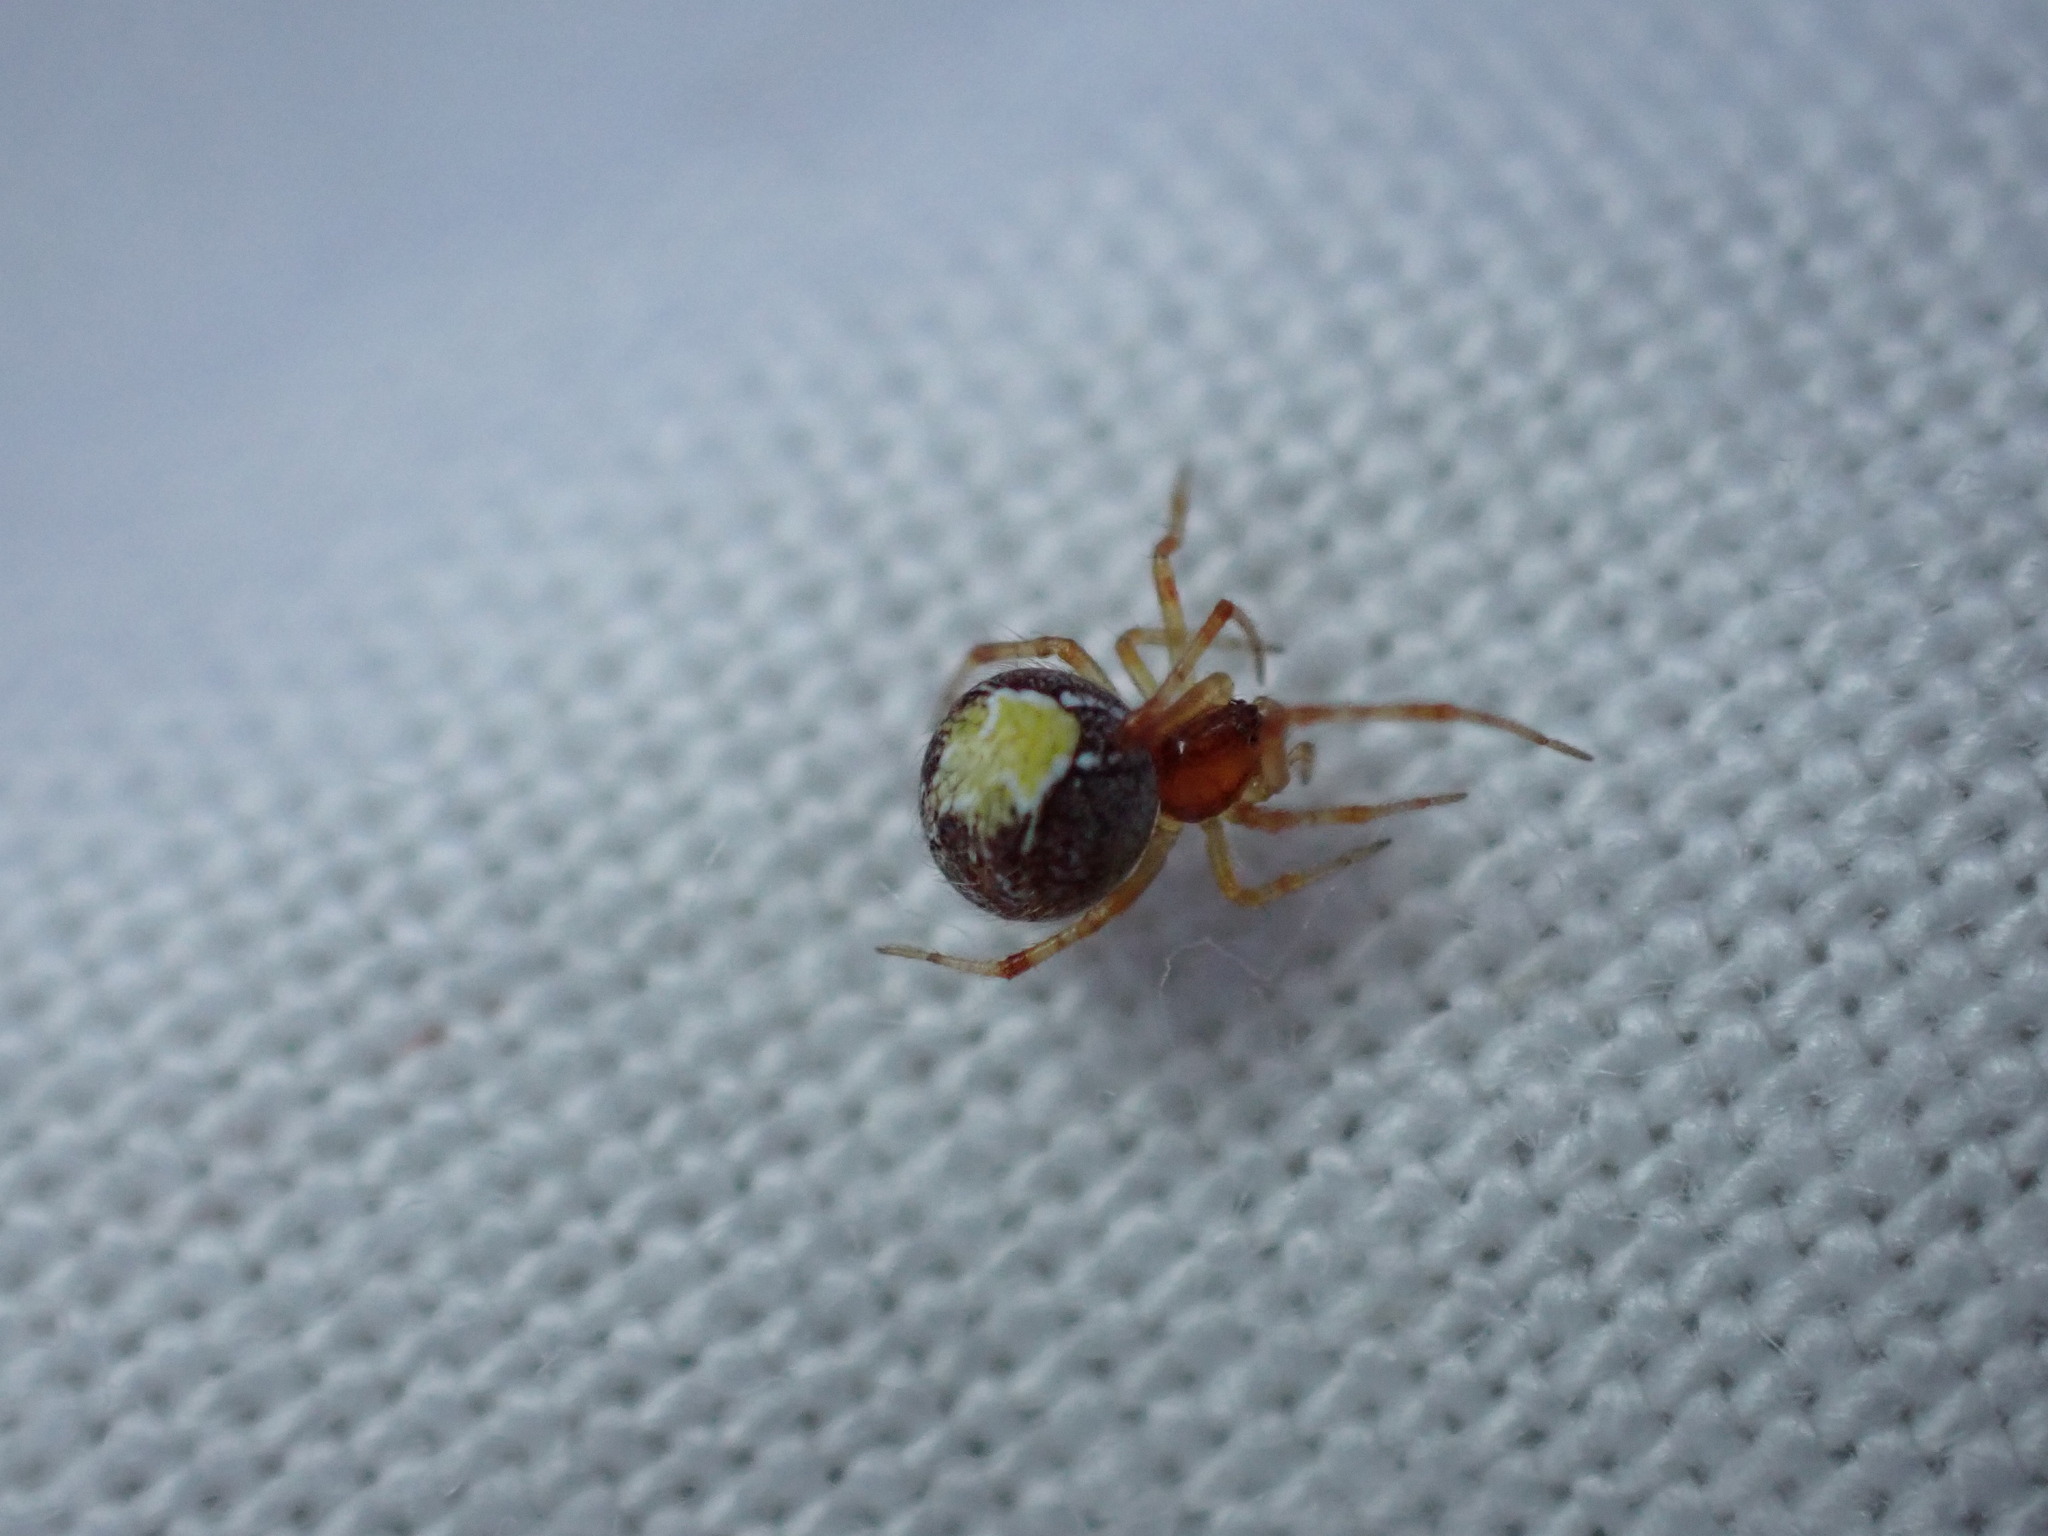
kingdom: Animalia
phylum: Arthropoda
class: Arachnida
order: Araneae
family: Theridiidae
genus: Simitidion
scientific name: Simitidion simile
